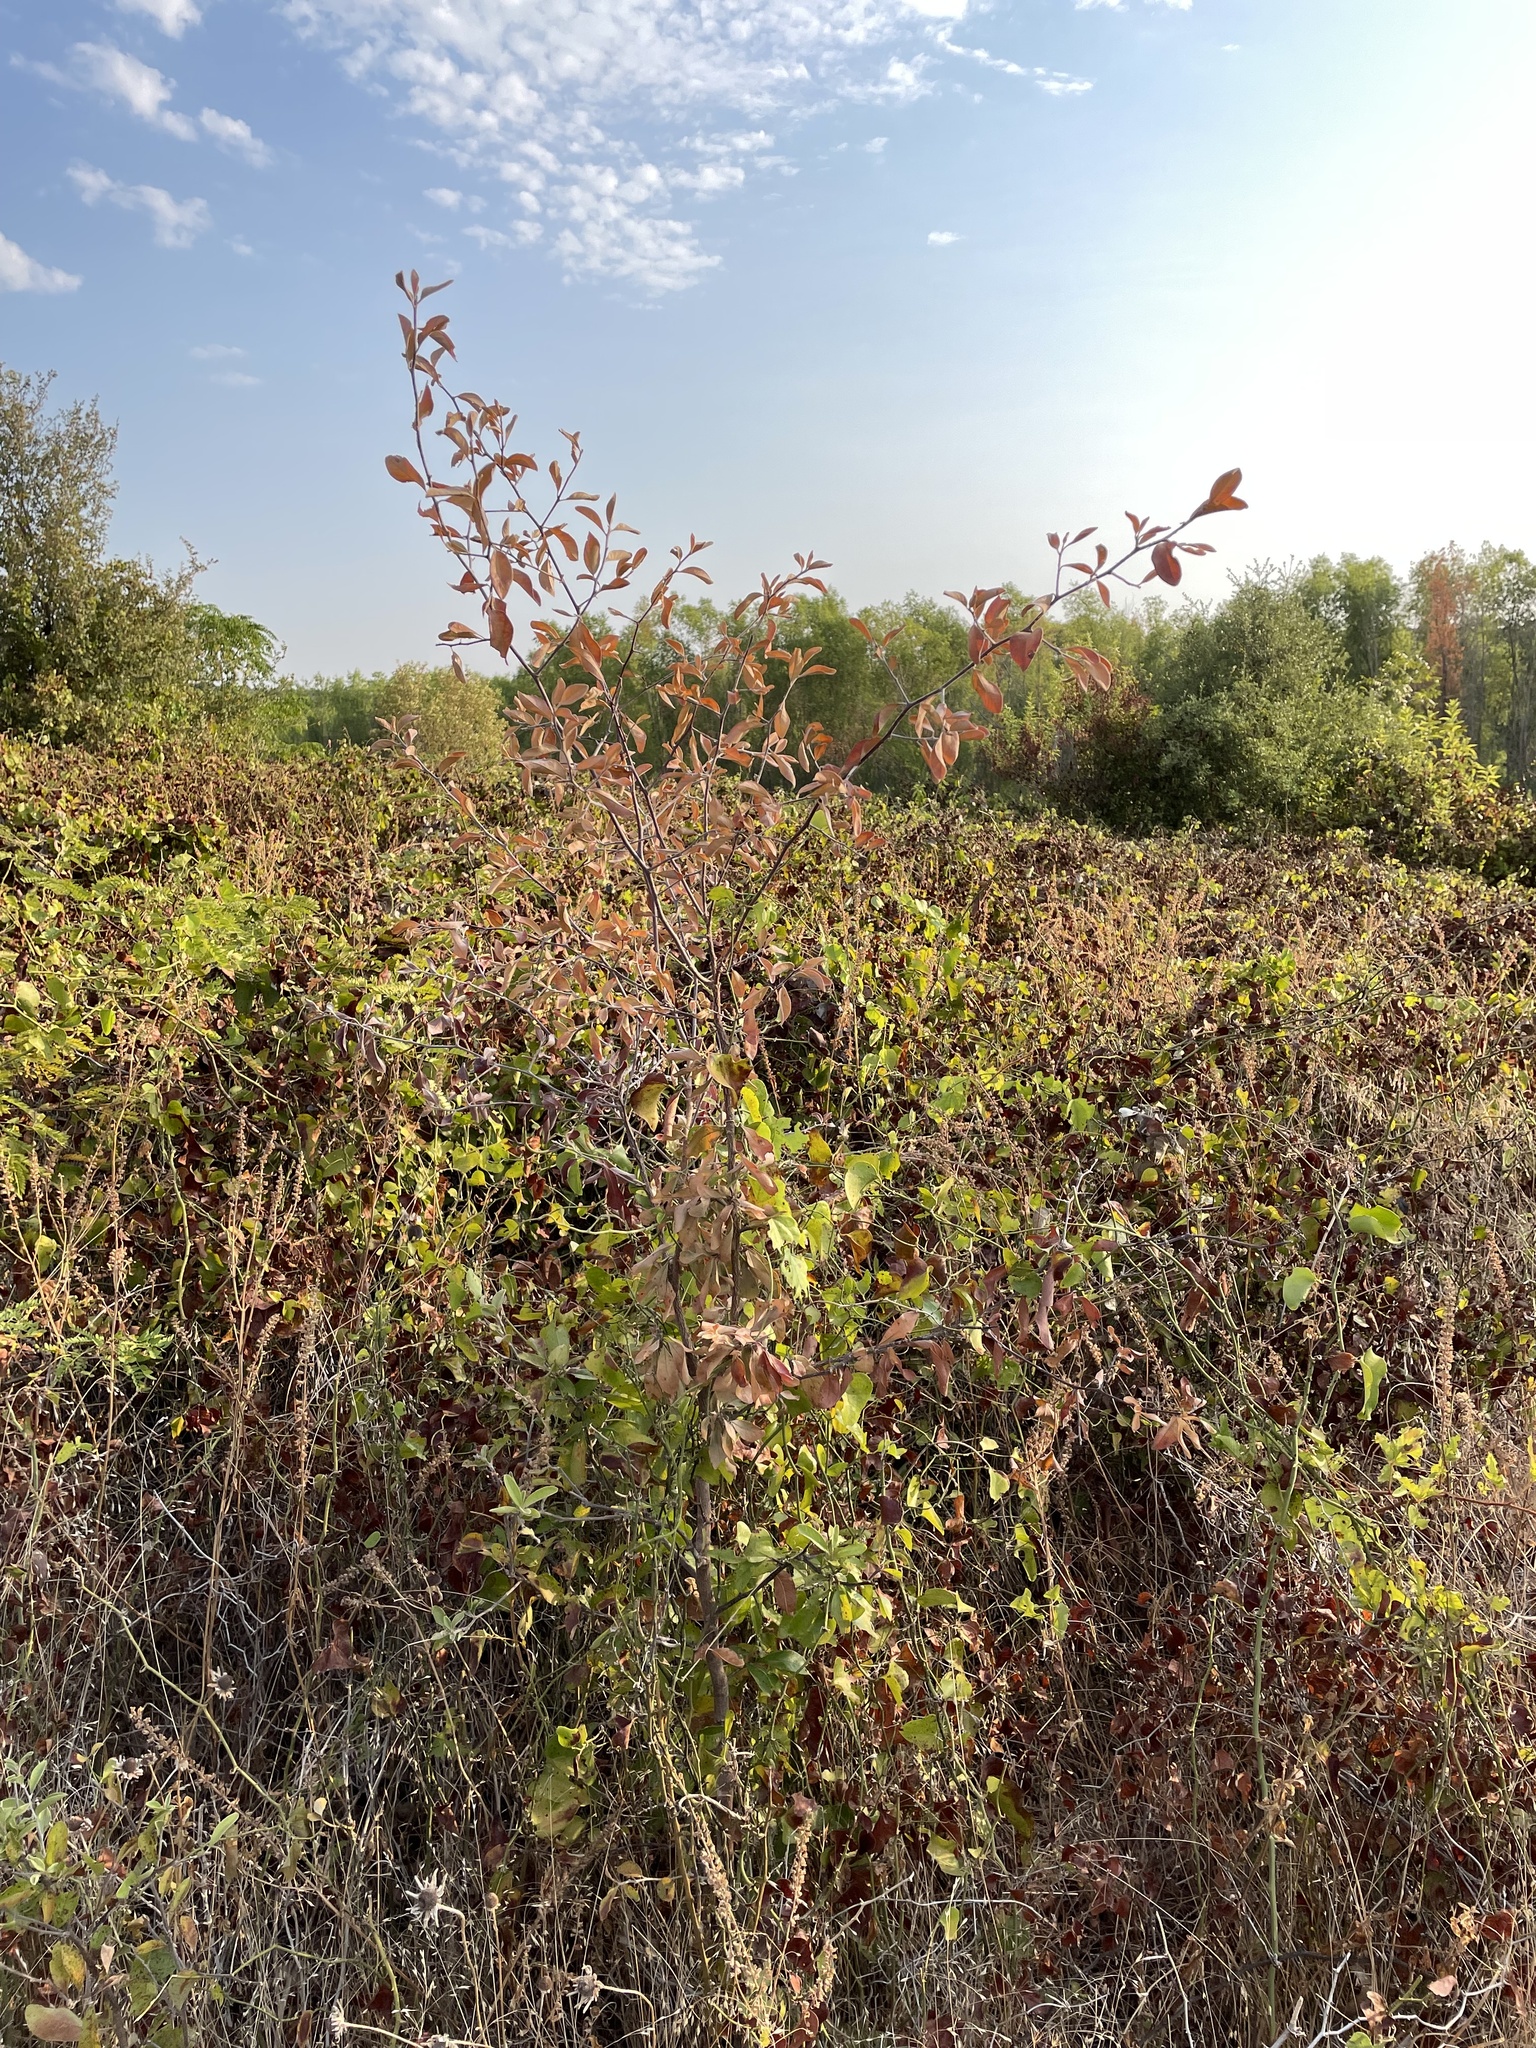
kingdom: Plantae
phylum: Tracheophyta
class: Magnoliopsida
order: Ericales
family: Sapotaceae
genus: Sideroxylon
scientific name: Sideroxylon lanuginosum
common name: Chittamwood
